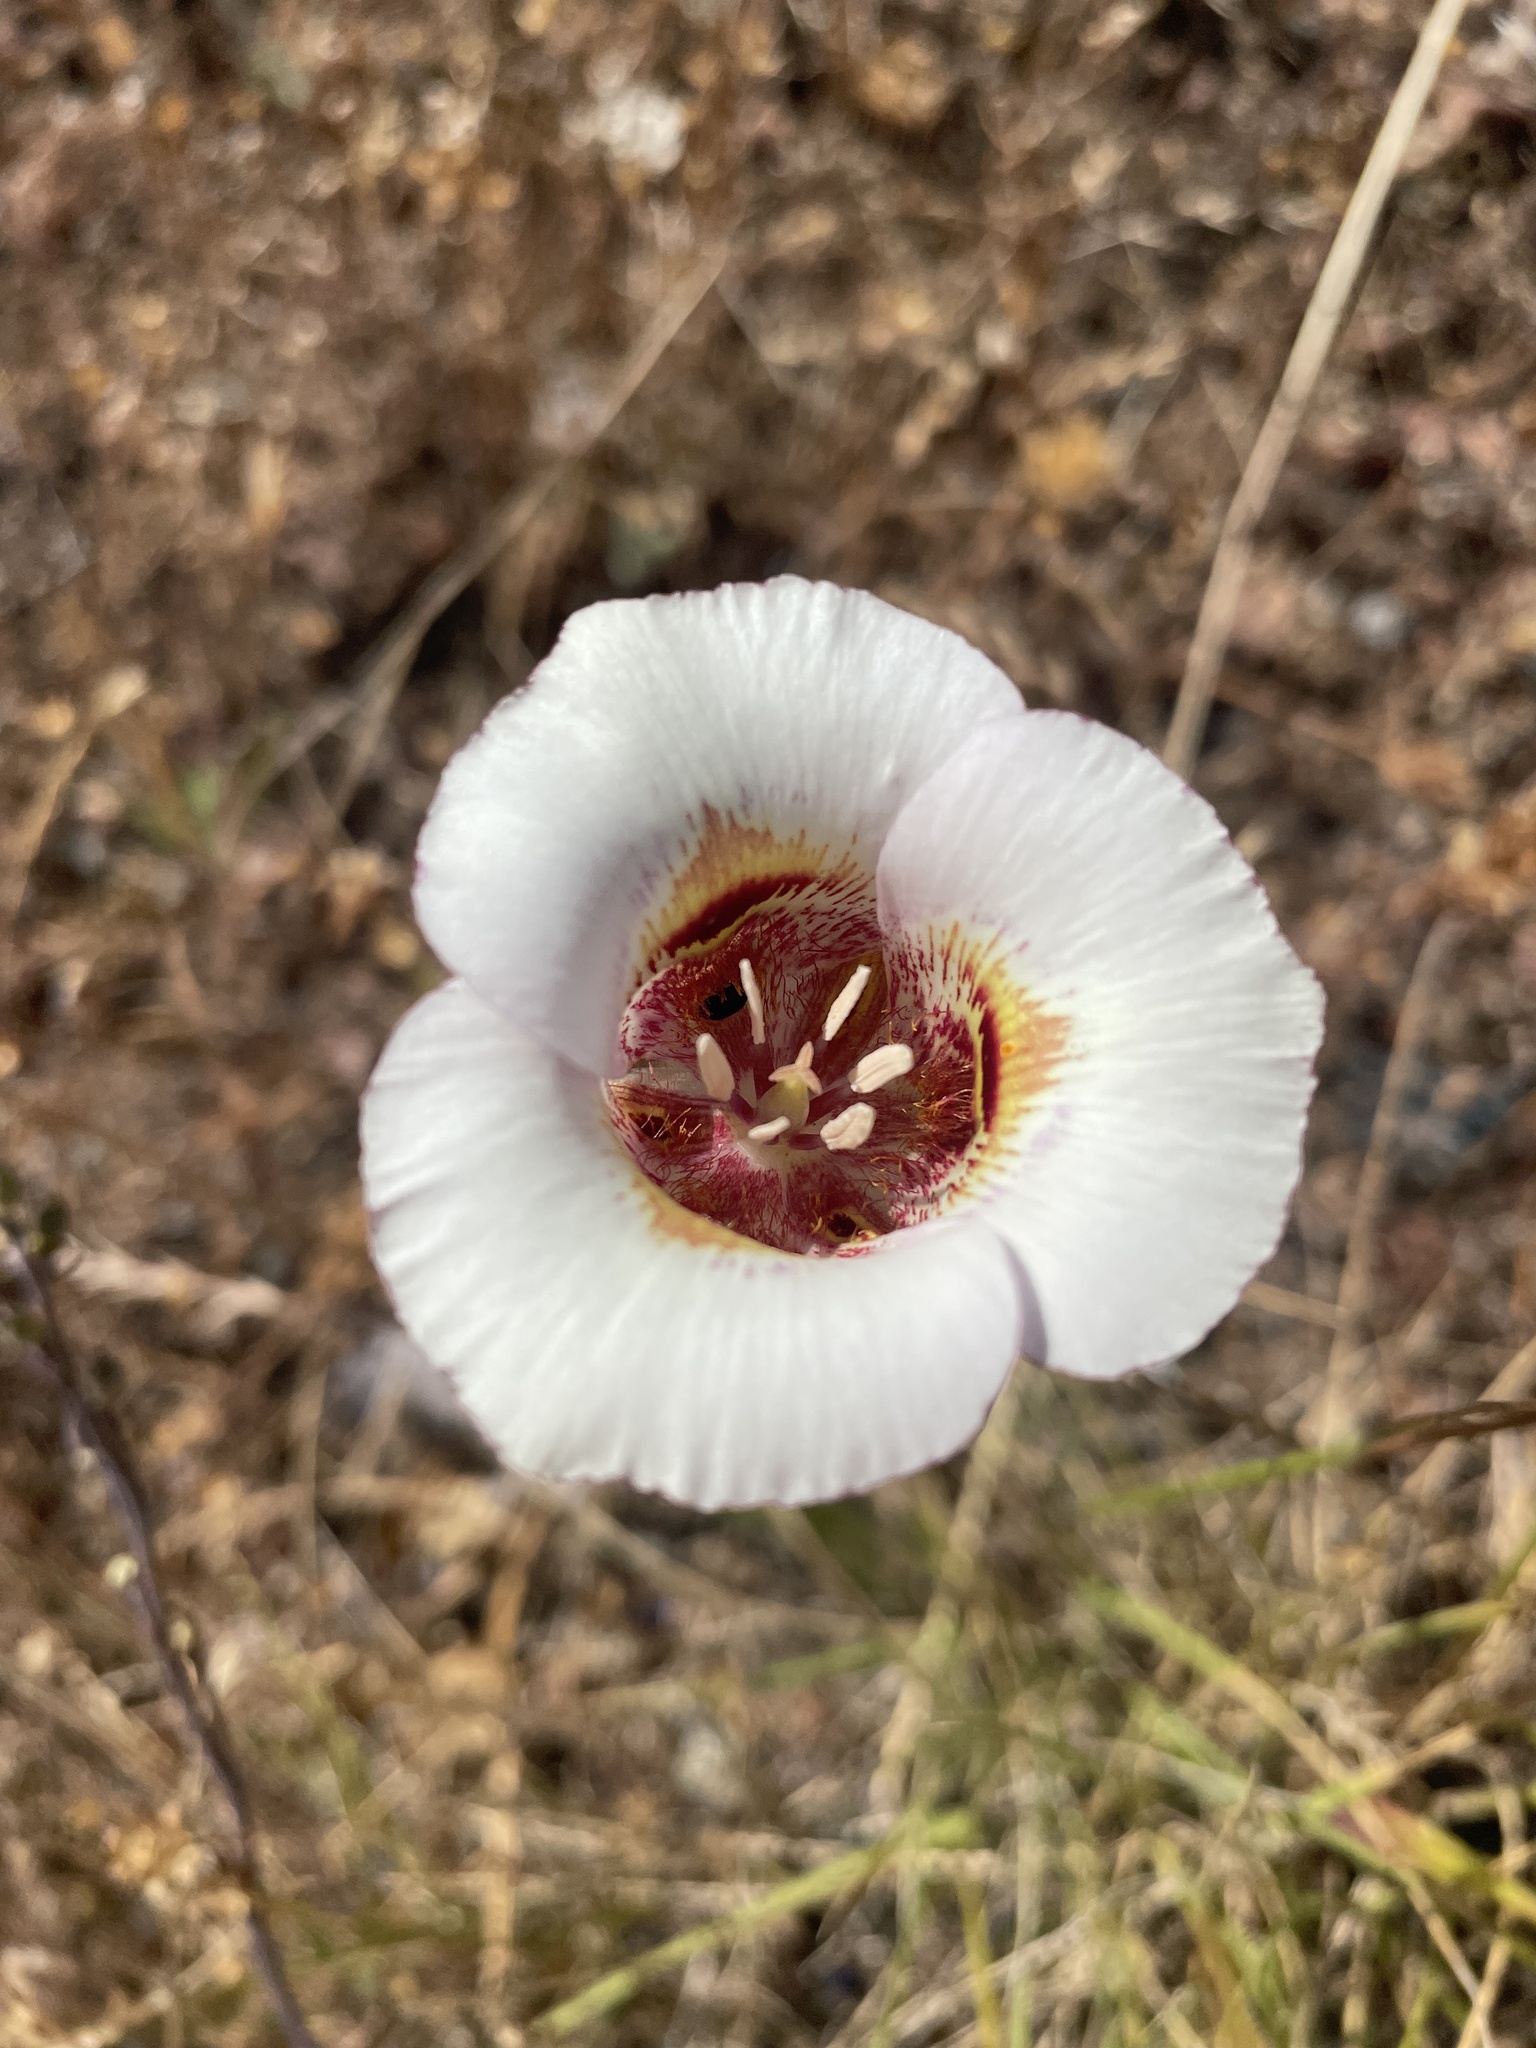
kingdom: Plantae
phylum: Tracheophyta
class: Liliopsida
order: Liliales
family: Liliaceae
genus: Calochortus
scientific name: Calochortus argillosus
